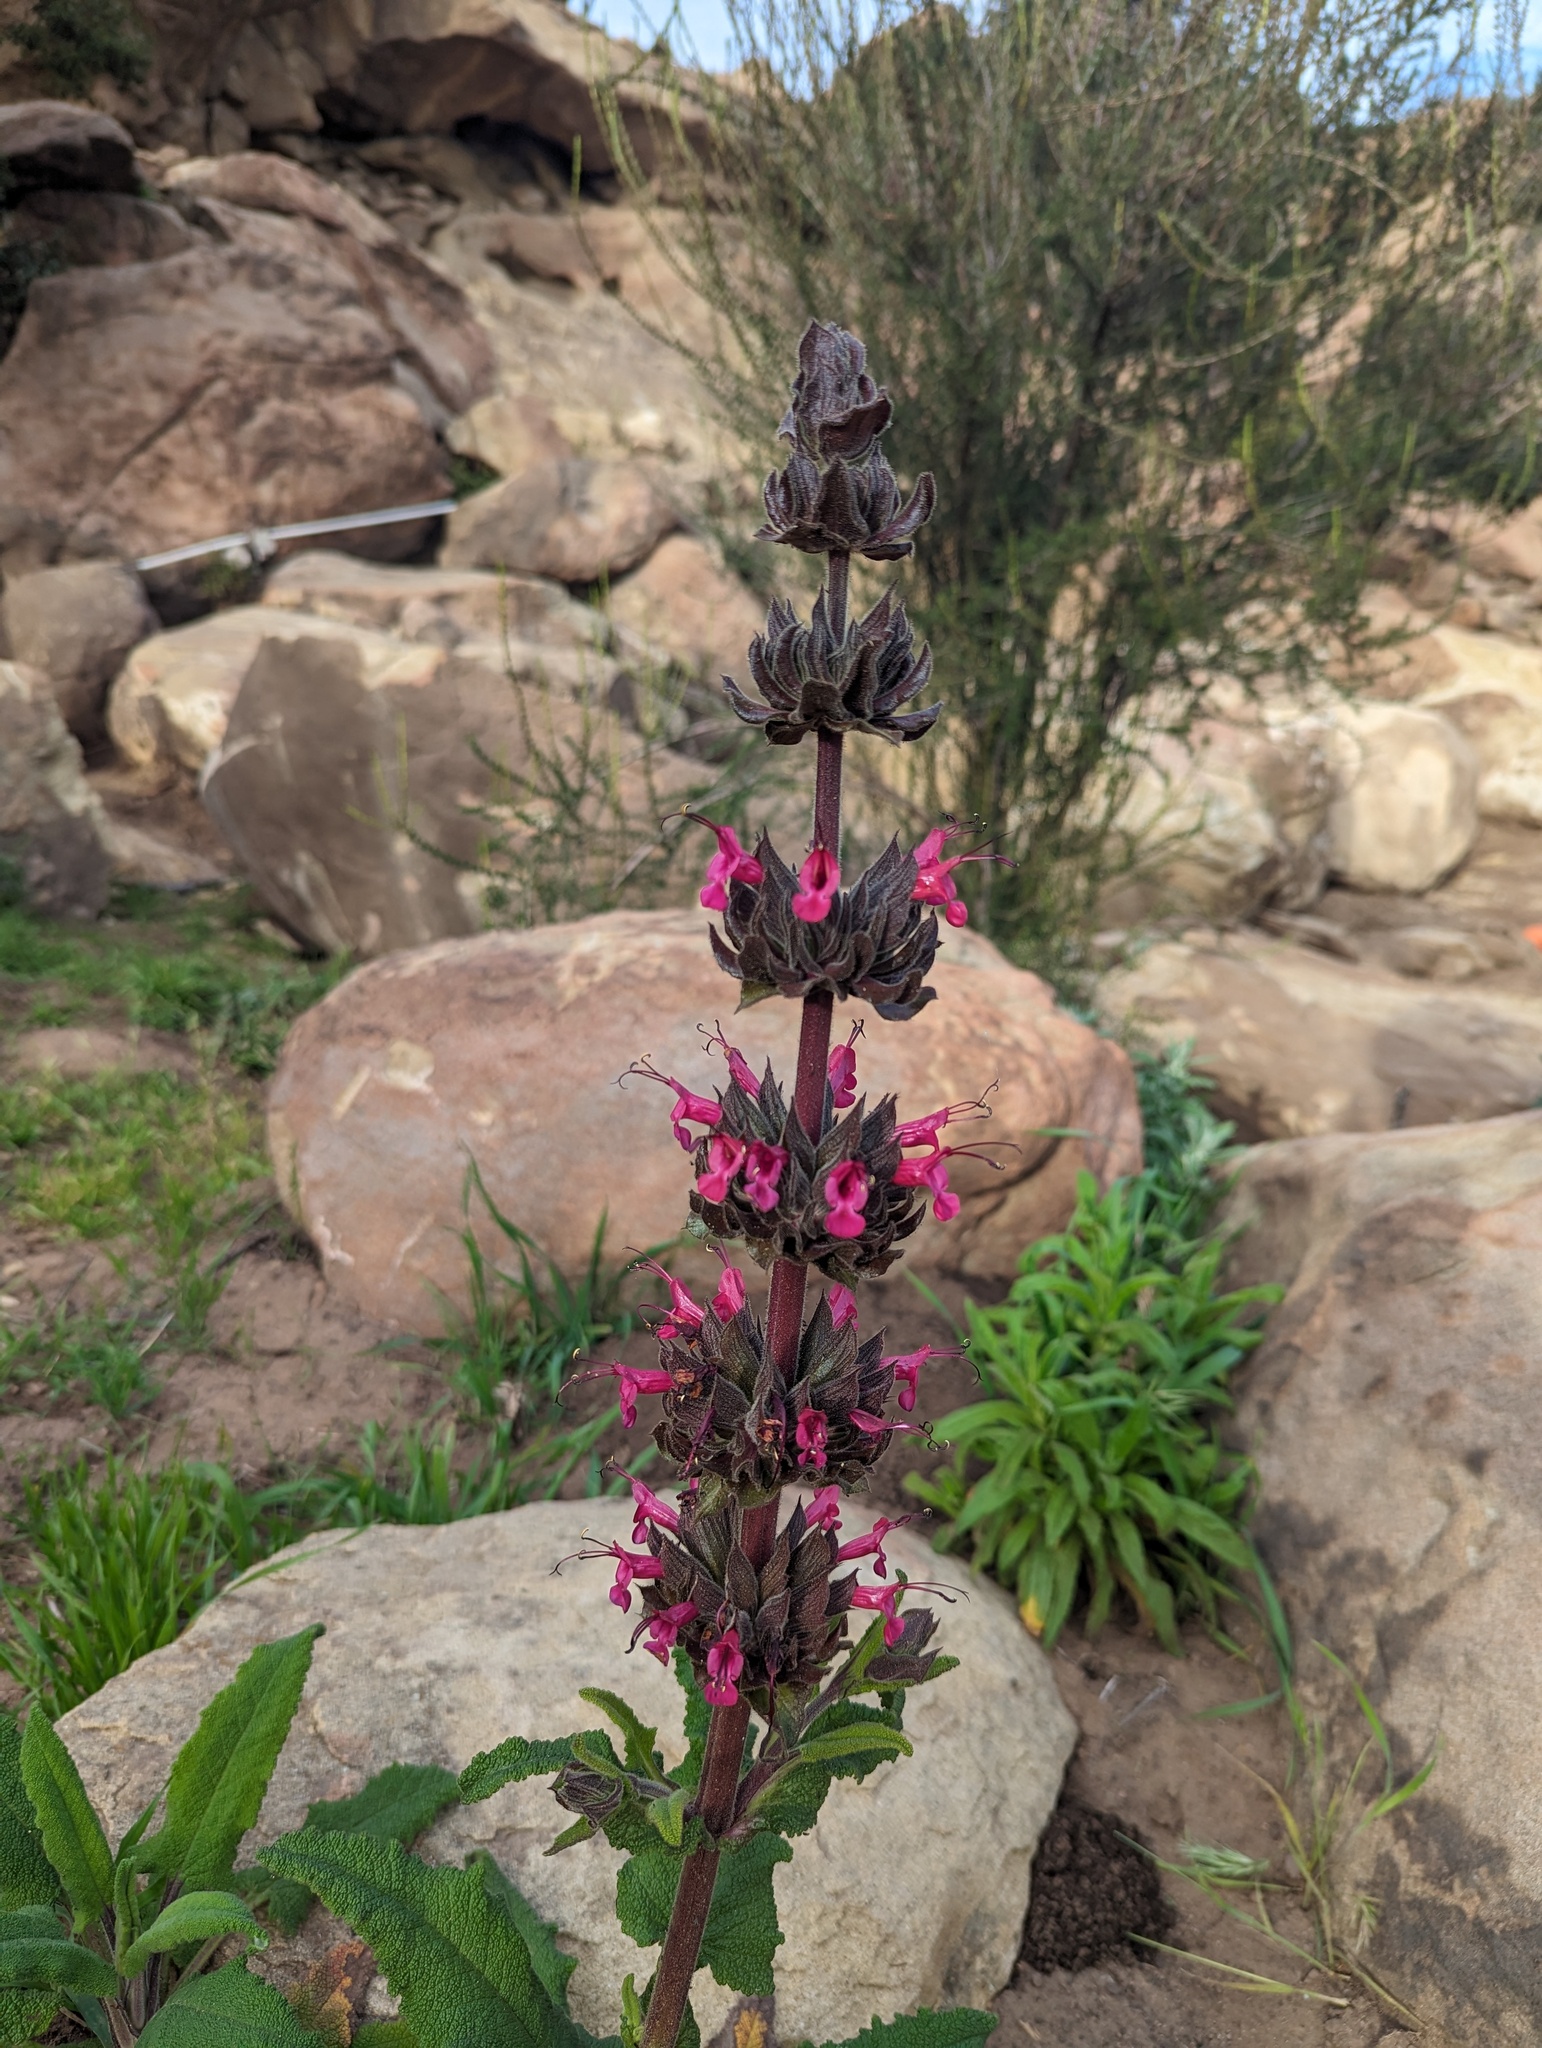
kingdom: Plantae
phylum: Tracheophyta
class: Magnoliopsida
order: Lamiales
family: Lamiaceae
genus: Salvia
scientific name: Salvia spathacea
